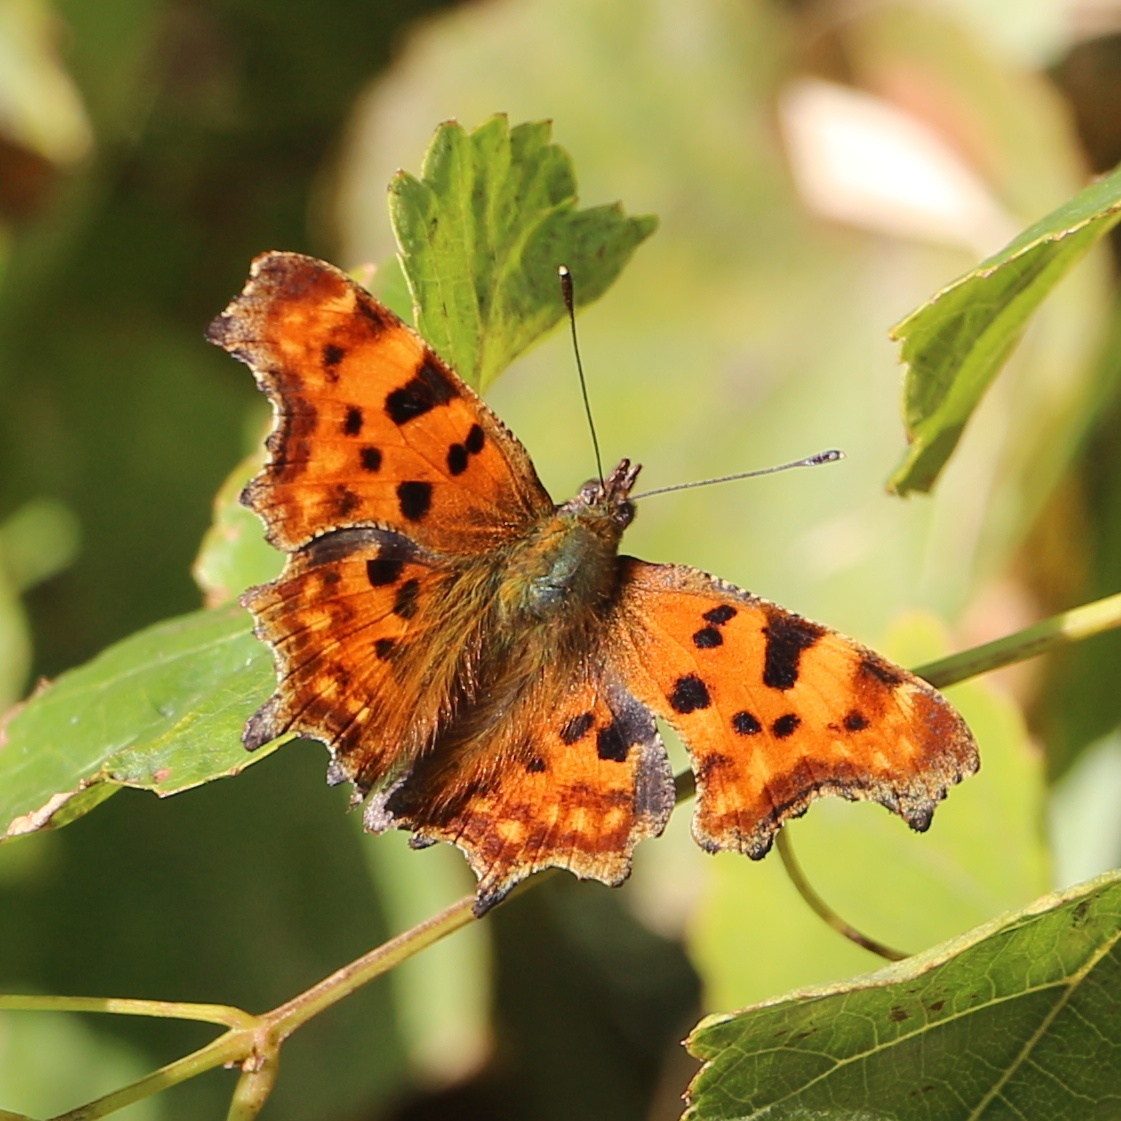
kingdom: Animalia
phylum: Arthropoda
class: Insecta
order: Lepidoptera
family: Nymphalidae
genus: Polygonia
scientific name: Polygonia c-album
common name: Comma
